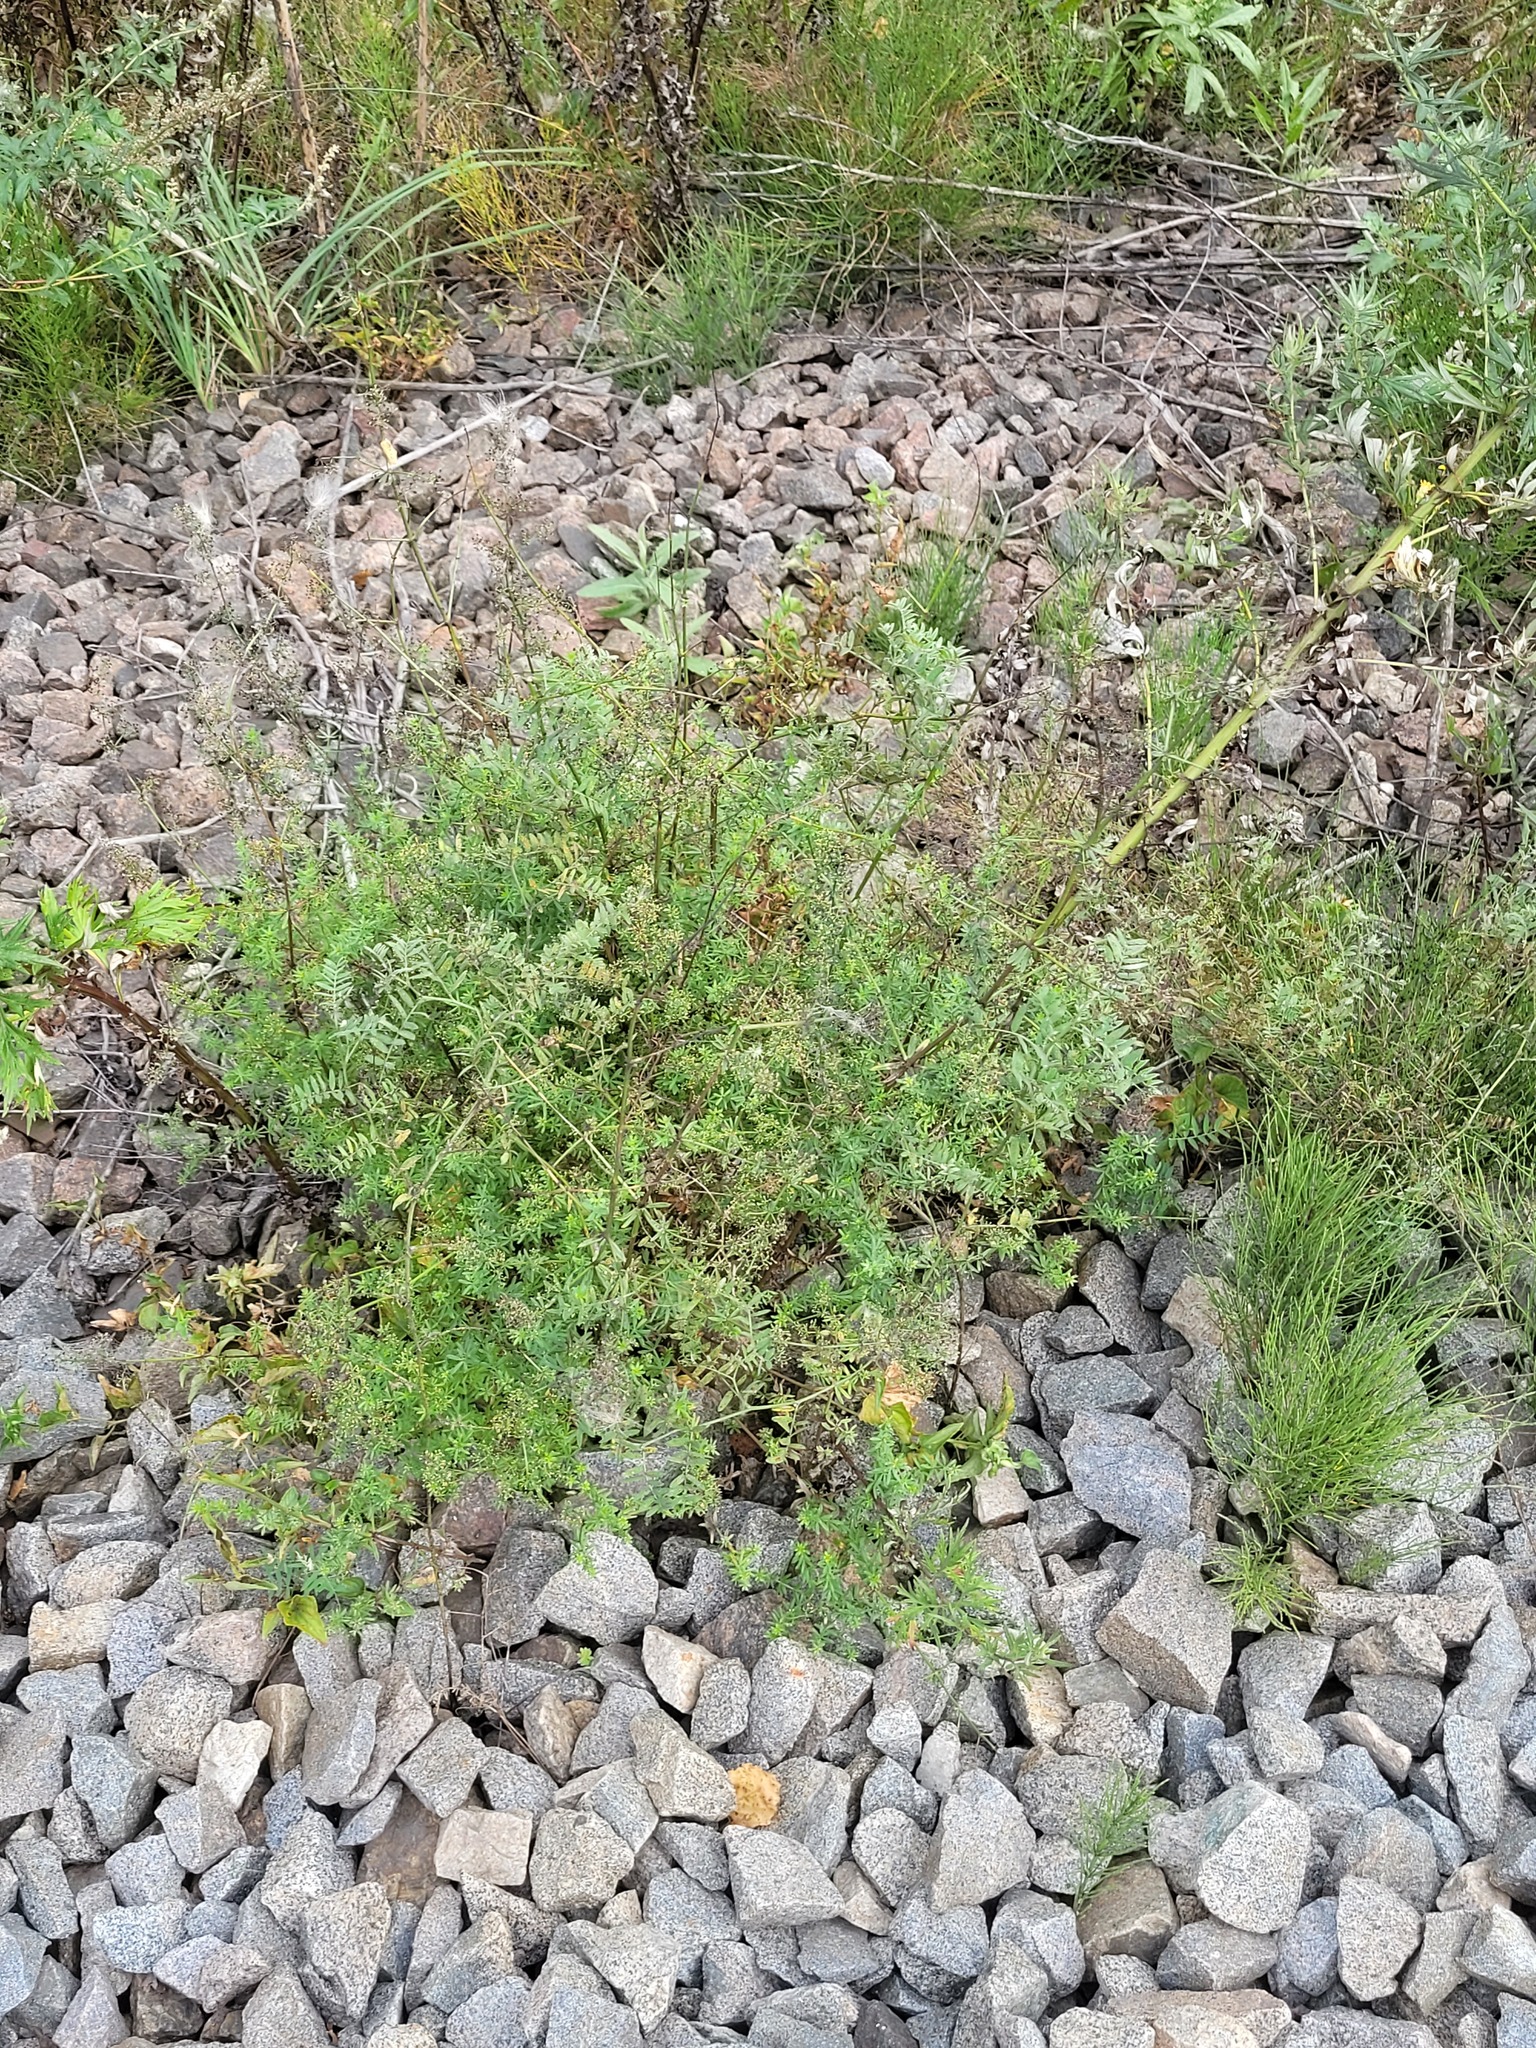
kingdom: Plantae
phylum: Tracheophyta
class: Magnoliopsida
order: Gentianales
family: Rubiaceae
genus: Galium
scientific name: Galium mollugo
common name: Hedge bedstraw
